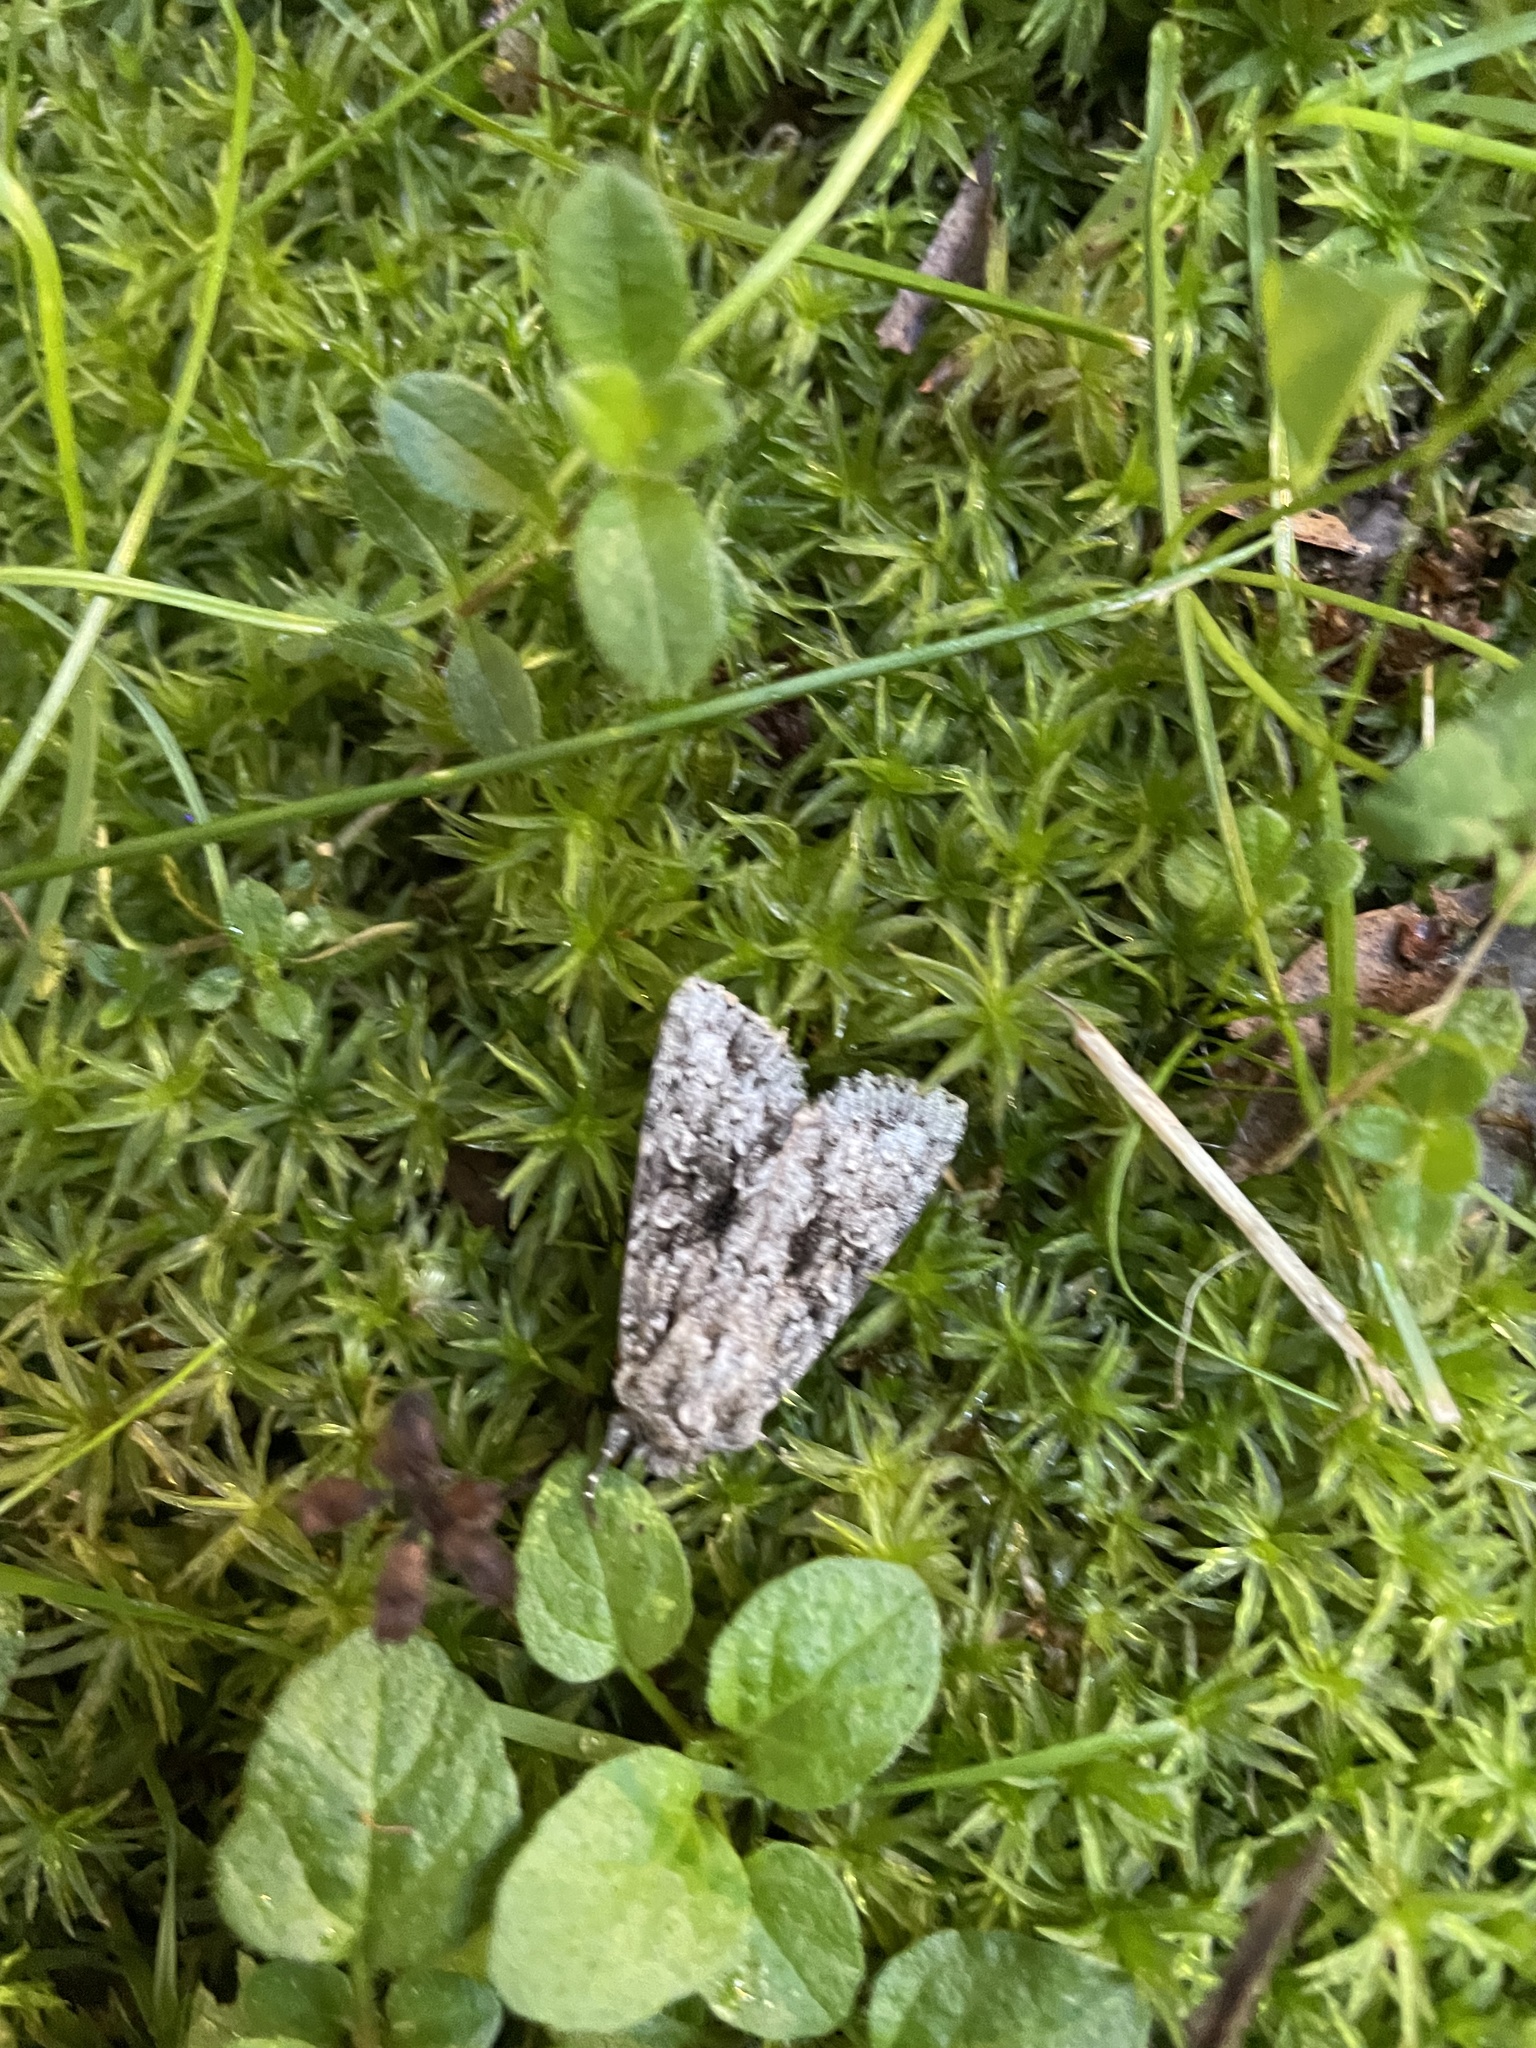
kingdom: Animalia
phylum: Arthropoda
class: Insecta
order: Lepidoptera
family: Noctuidae
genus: Sutyna
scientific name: Sutyna privata
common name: Private sallow
